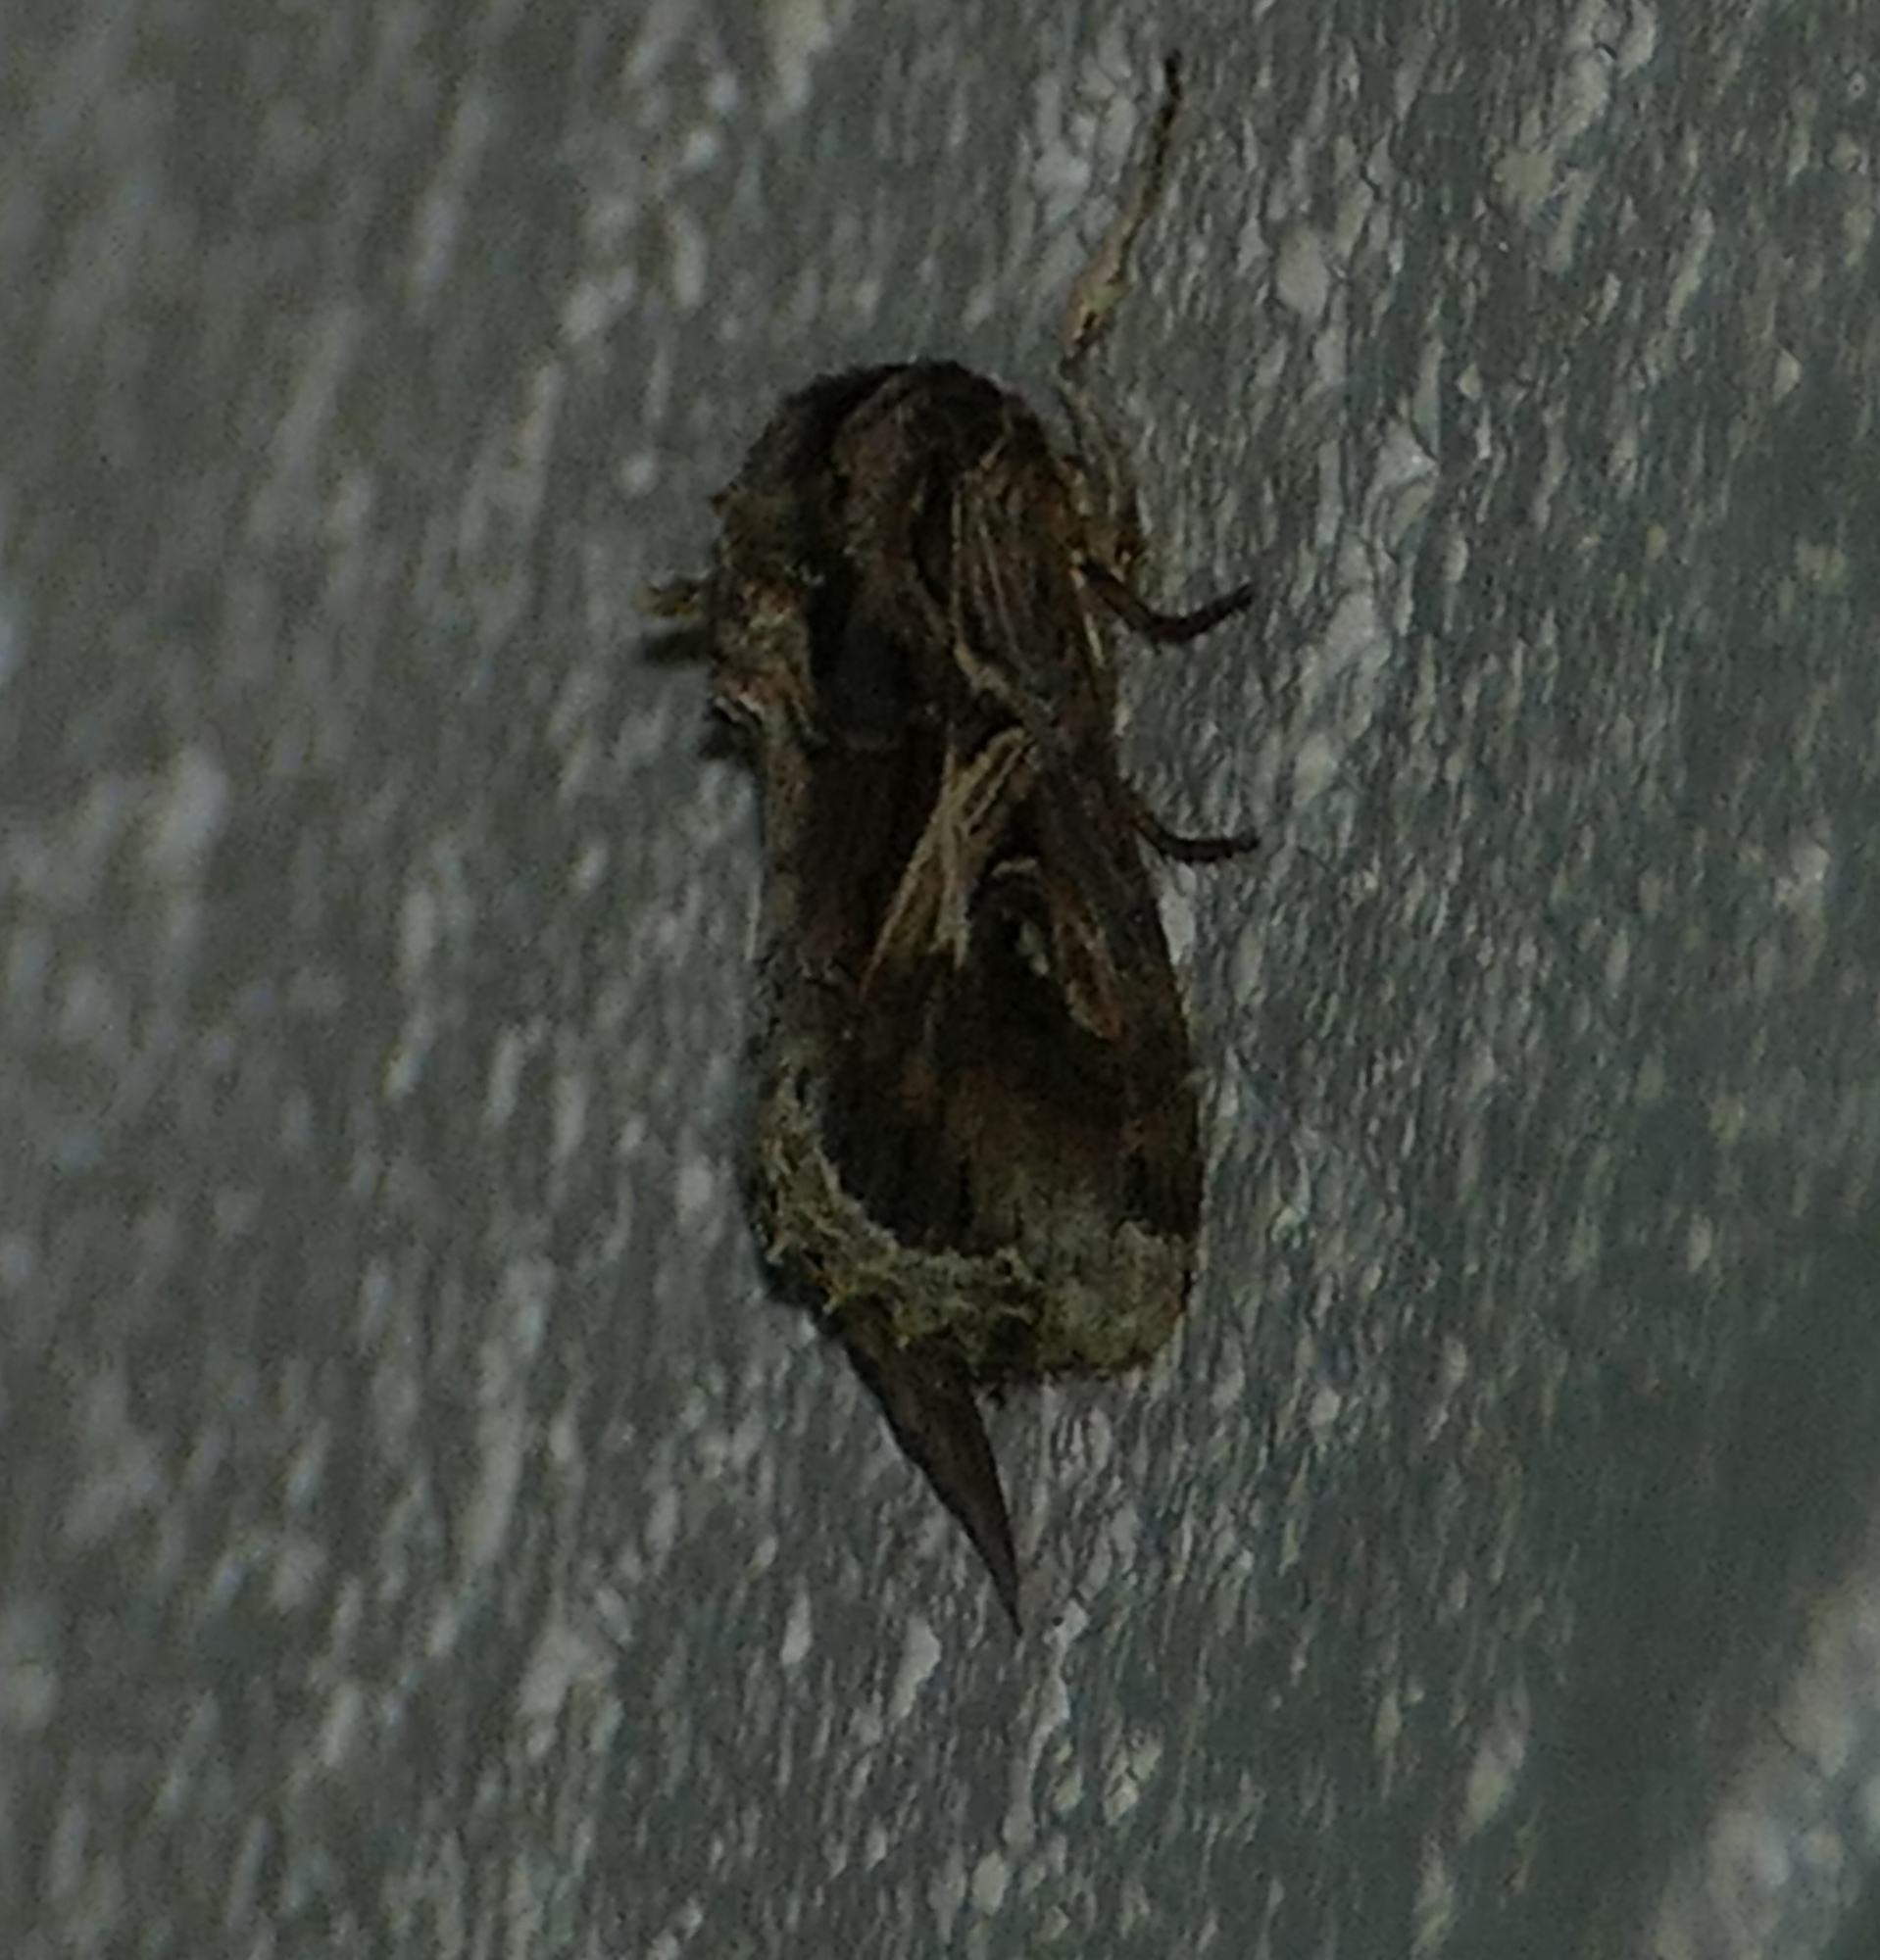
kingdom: Animalia
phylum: Arthropoda
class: Insecta
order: Lepidoptera
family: Noctuidae
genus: Spodoptera
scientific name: Spodoptera dolichos
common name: Sweetpotato armyworm
